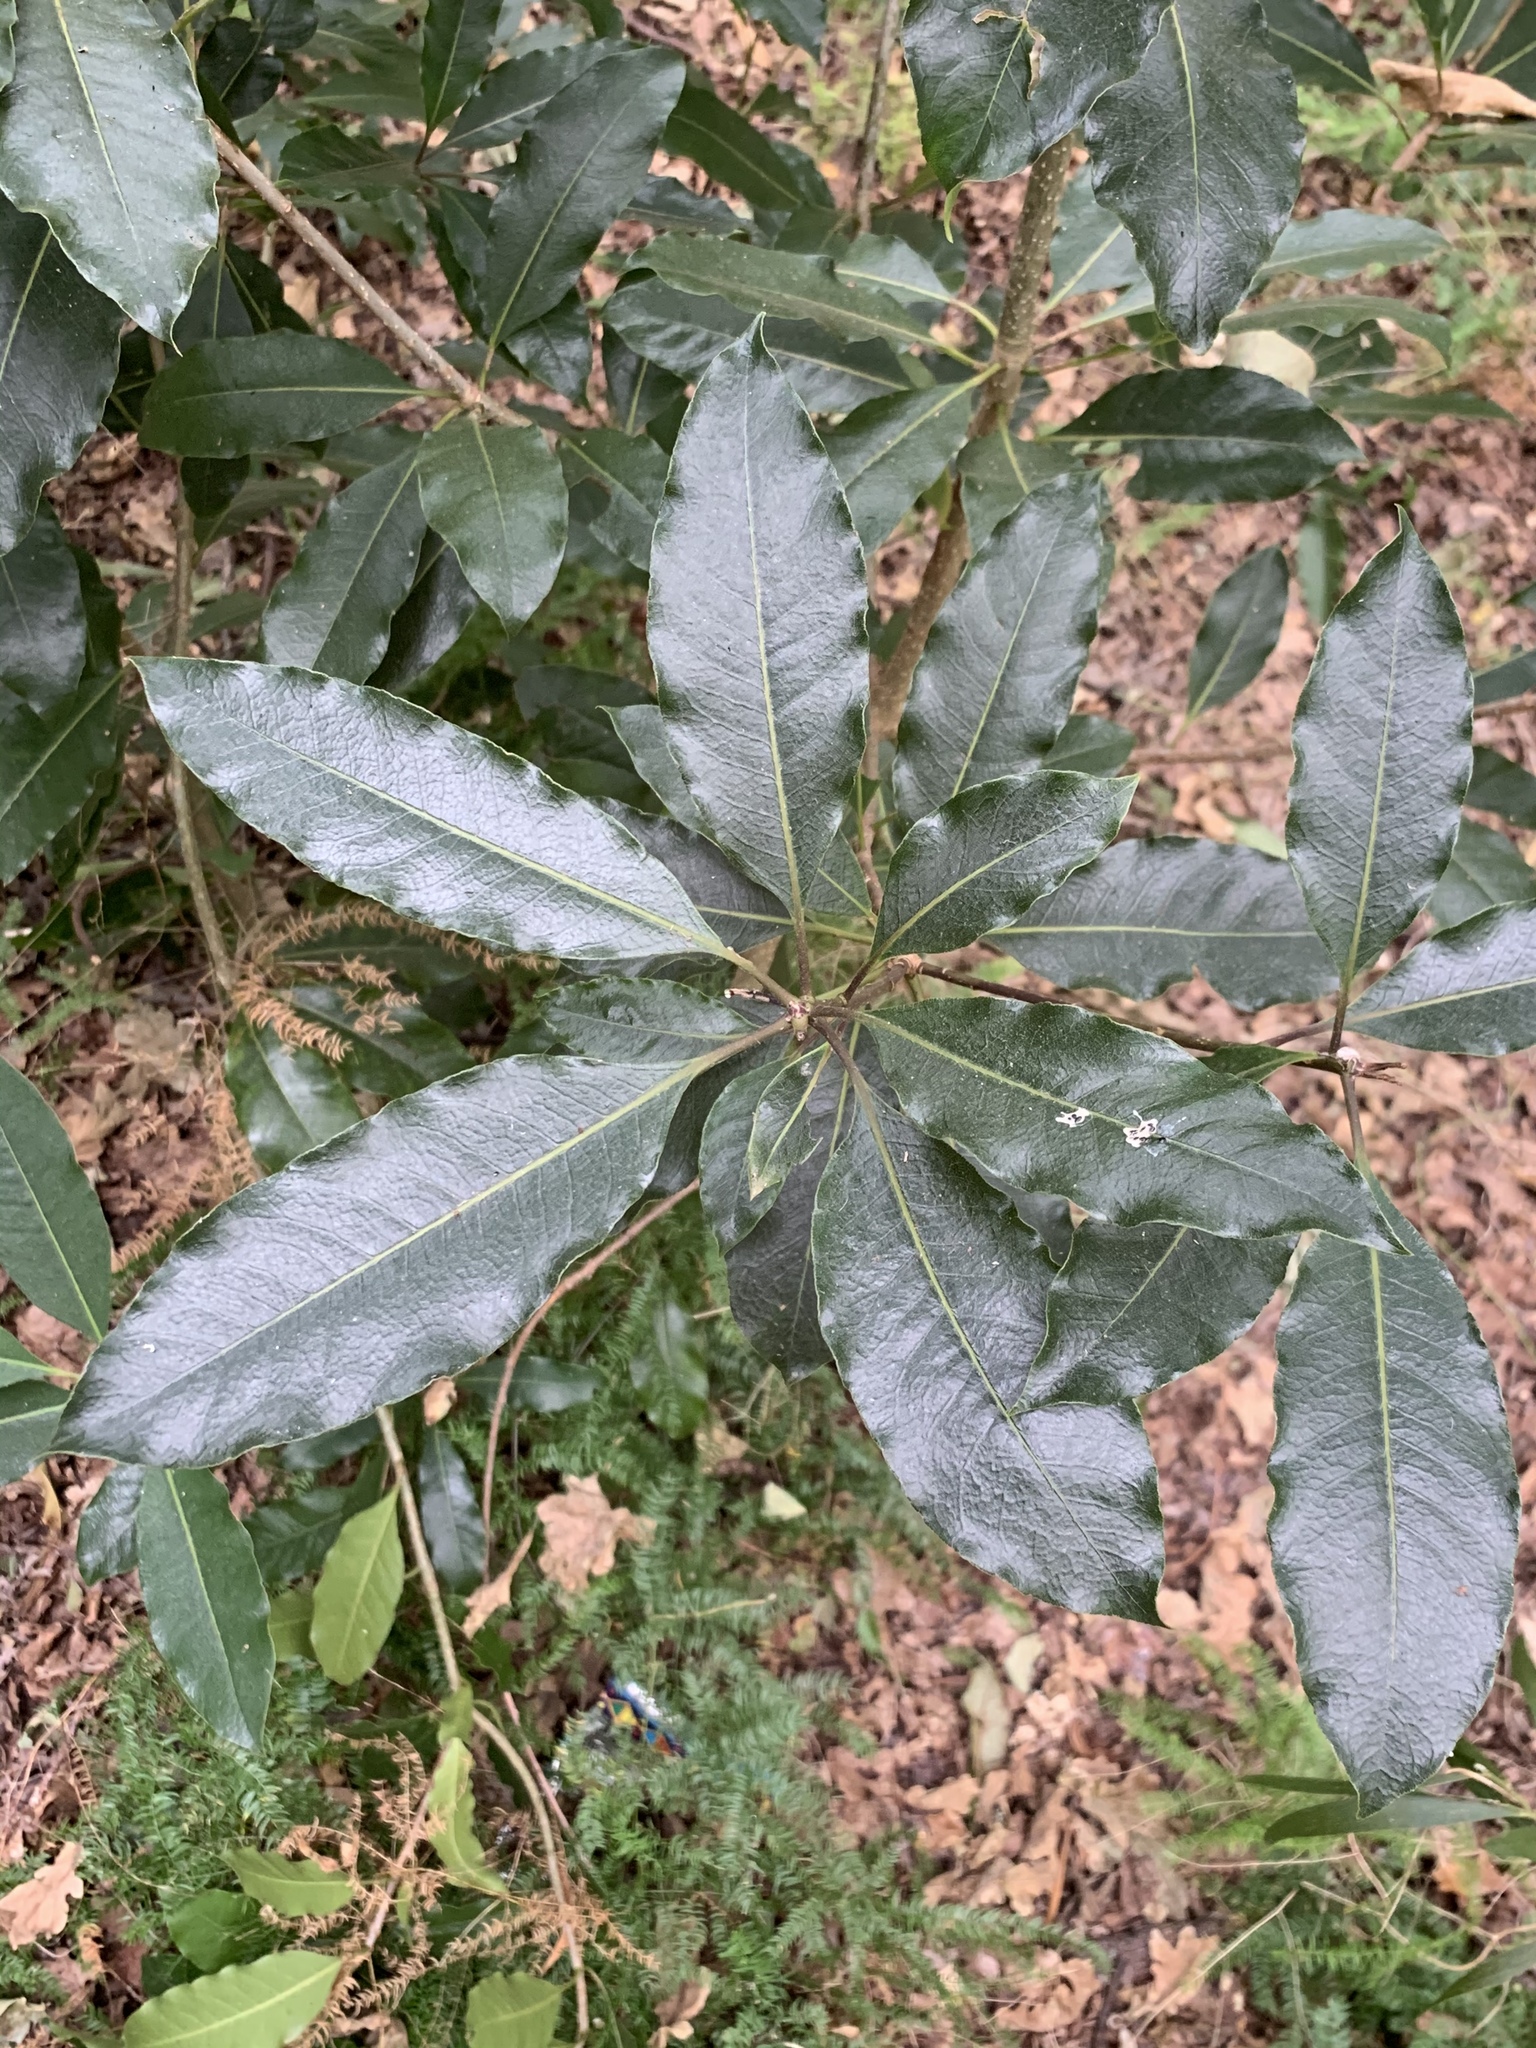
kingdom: Plantae
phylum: Tracheophyta
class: Magnoliopsida
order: Apiales
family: Pittosporaceae
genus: Pittosporum
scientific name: Pittosporum undulatum
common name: Australian cheesewood
